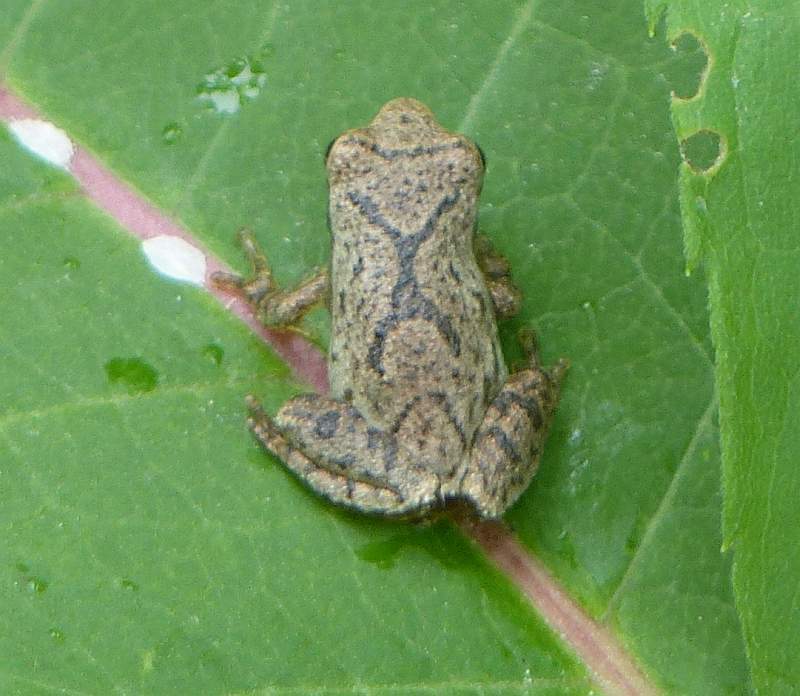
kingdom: Animalia
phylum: Chordata
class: Amphibia
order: Anura
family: Hylidae
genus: Pseudacris
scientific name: Pseudacris crucifer
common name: Spring peeper
